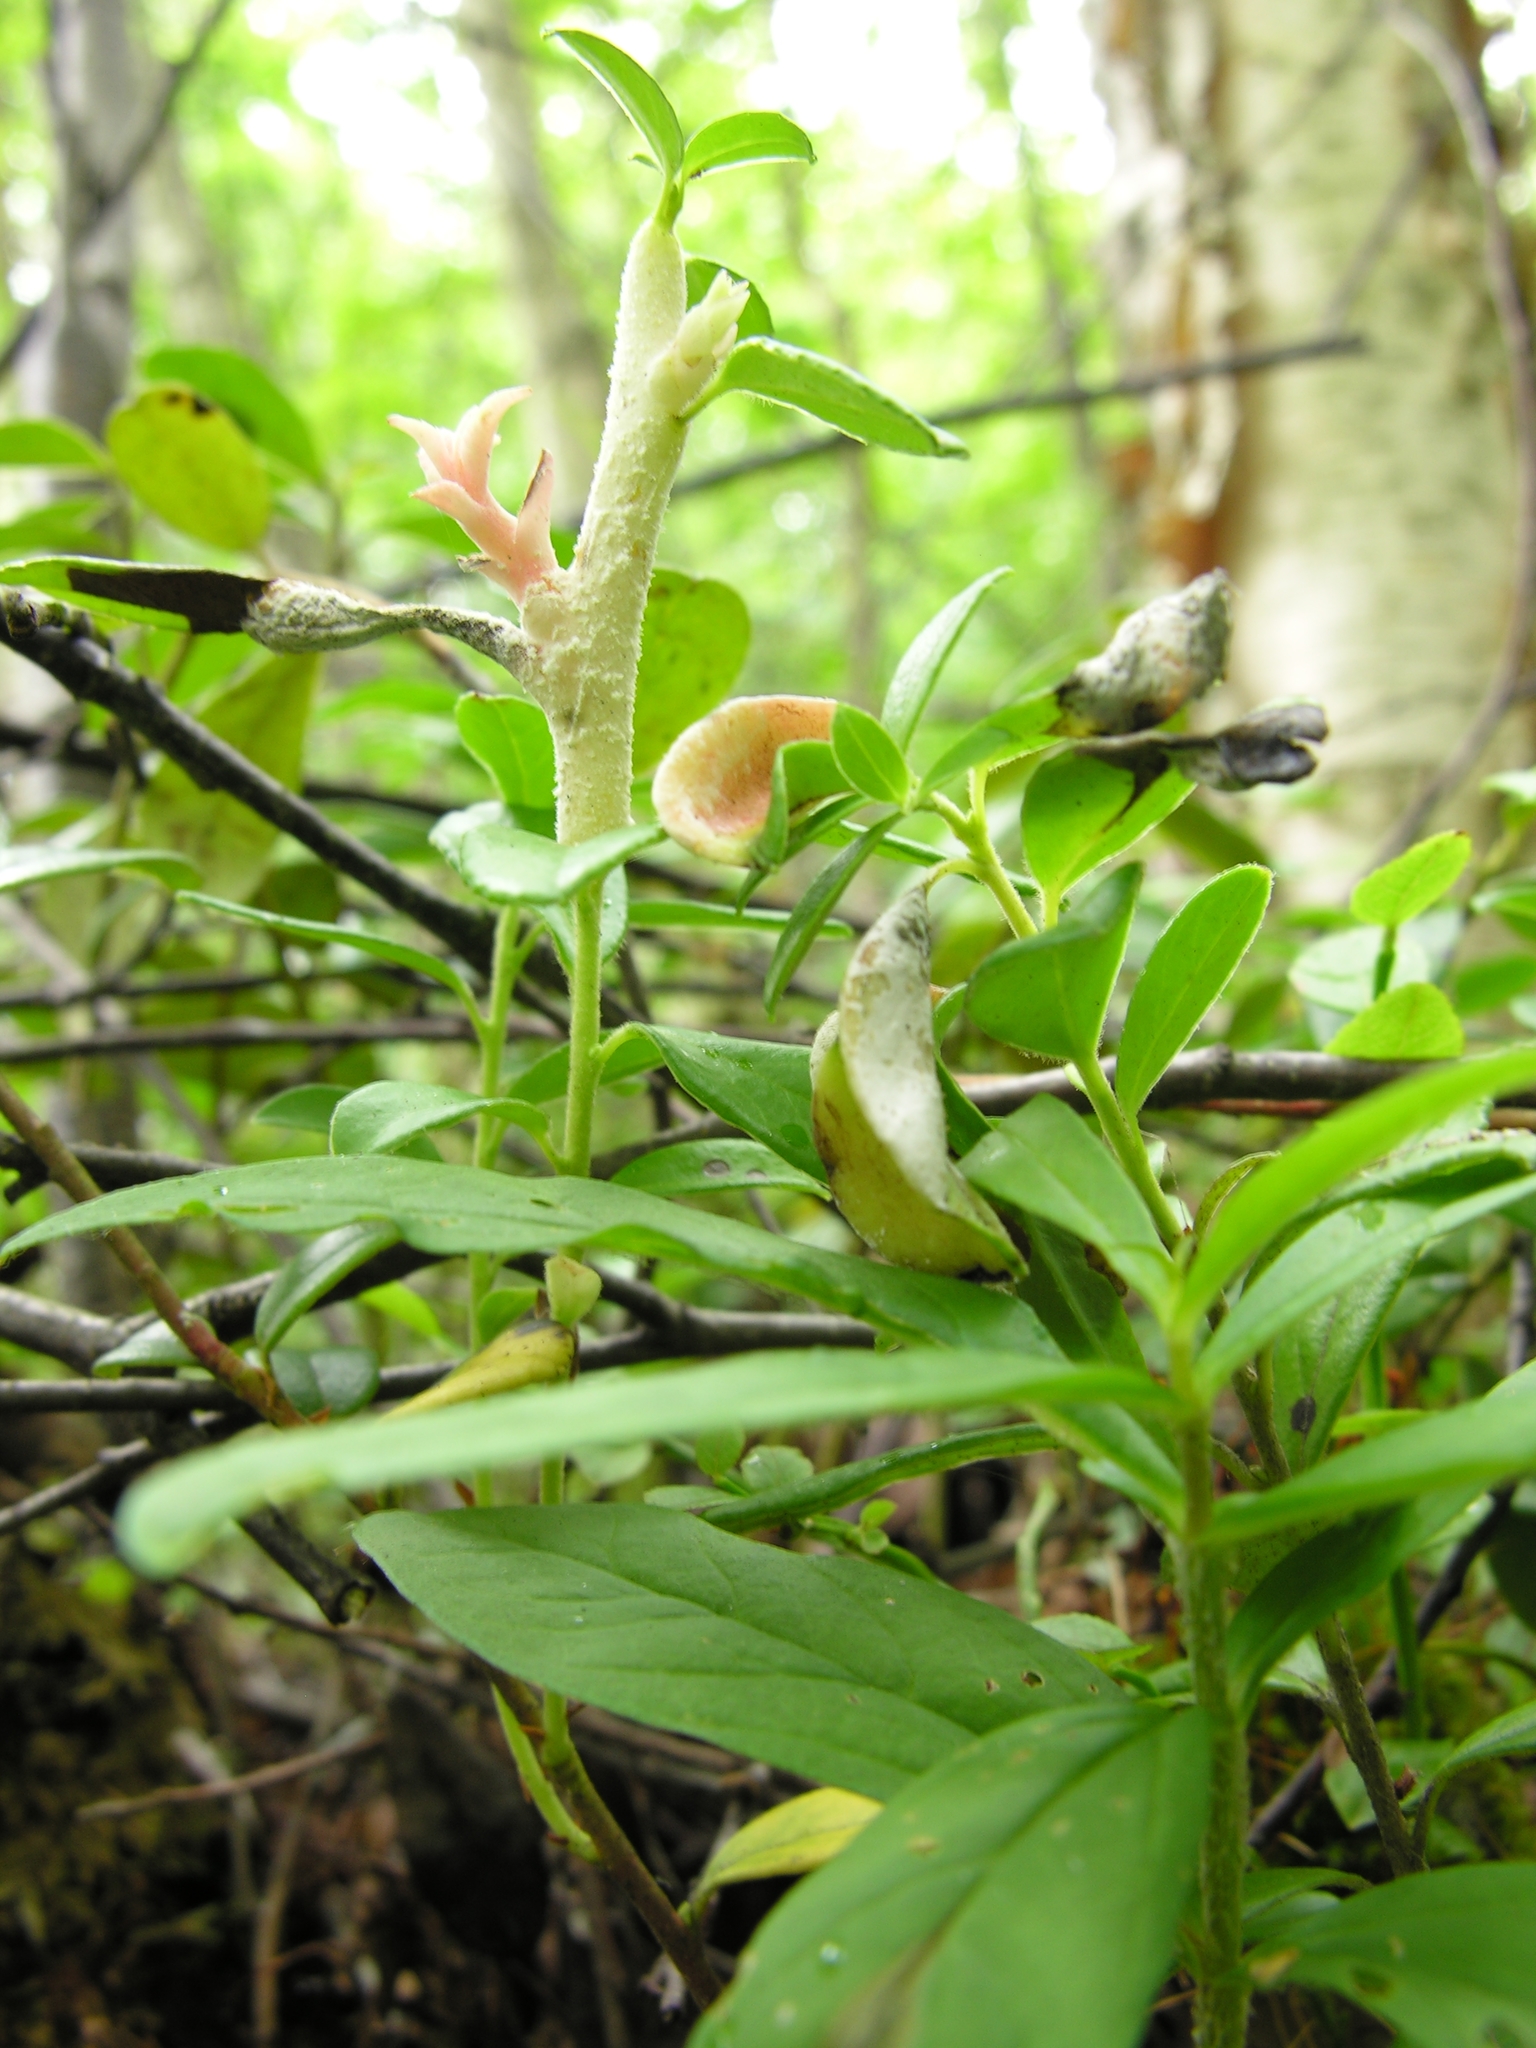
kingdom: Fungi
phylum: Basidiomycota
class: Exobasidiomycetes
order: Exobasidiales
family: Exobasidiaceae
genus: Exobasidium
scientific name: Exobasidium vaccinii
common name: Cowberry redleaf
